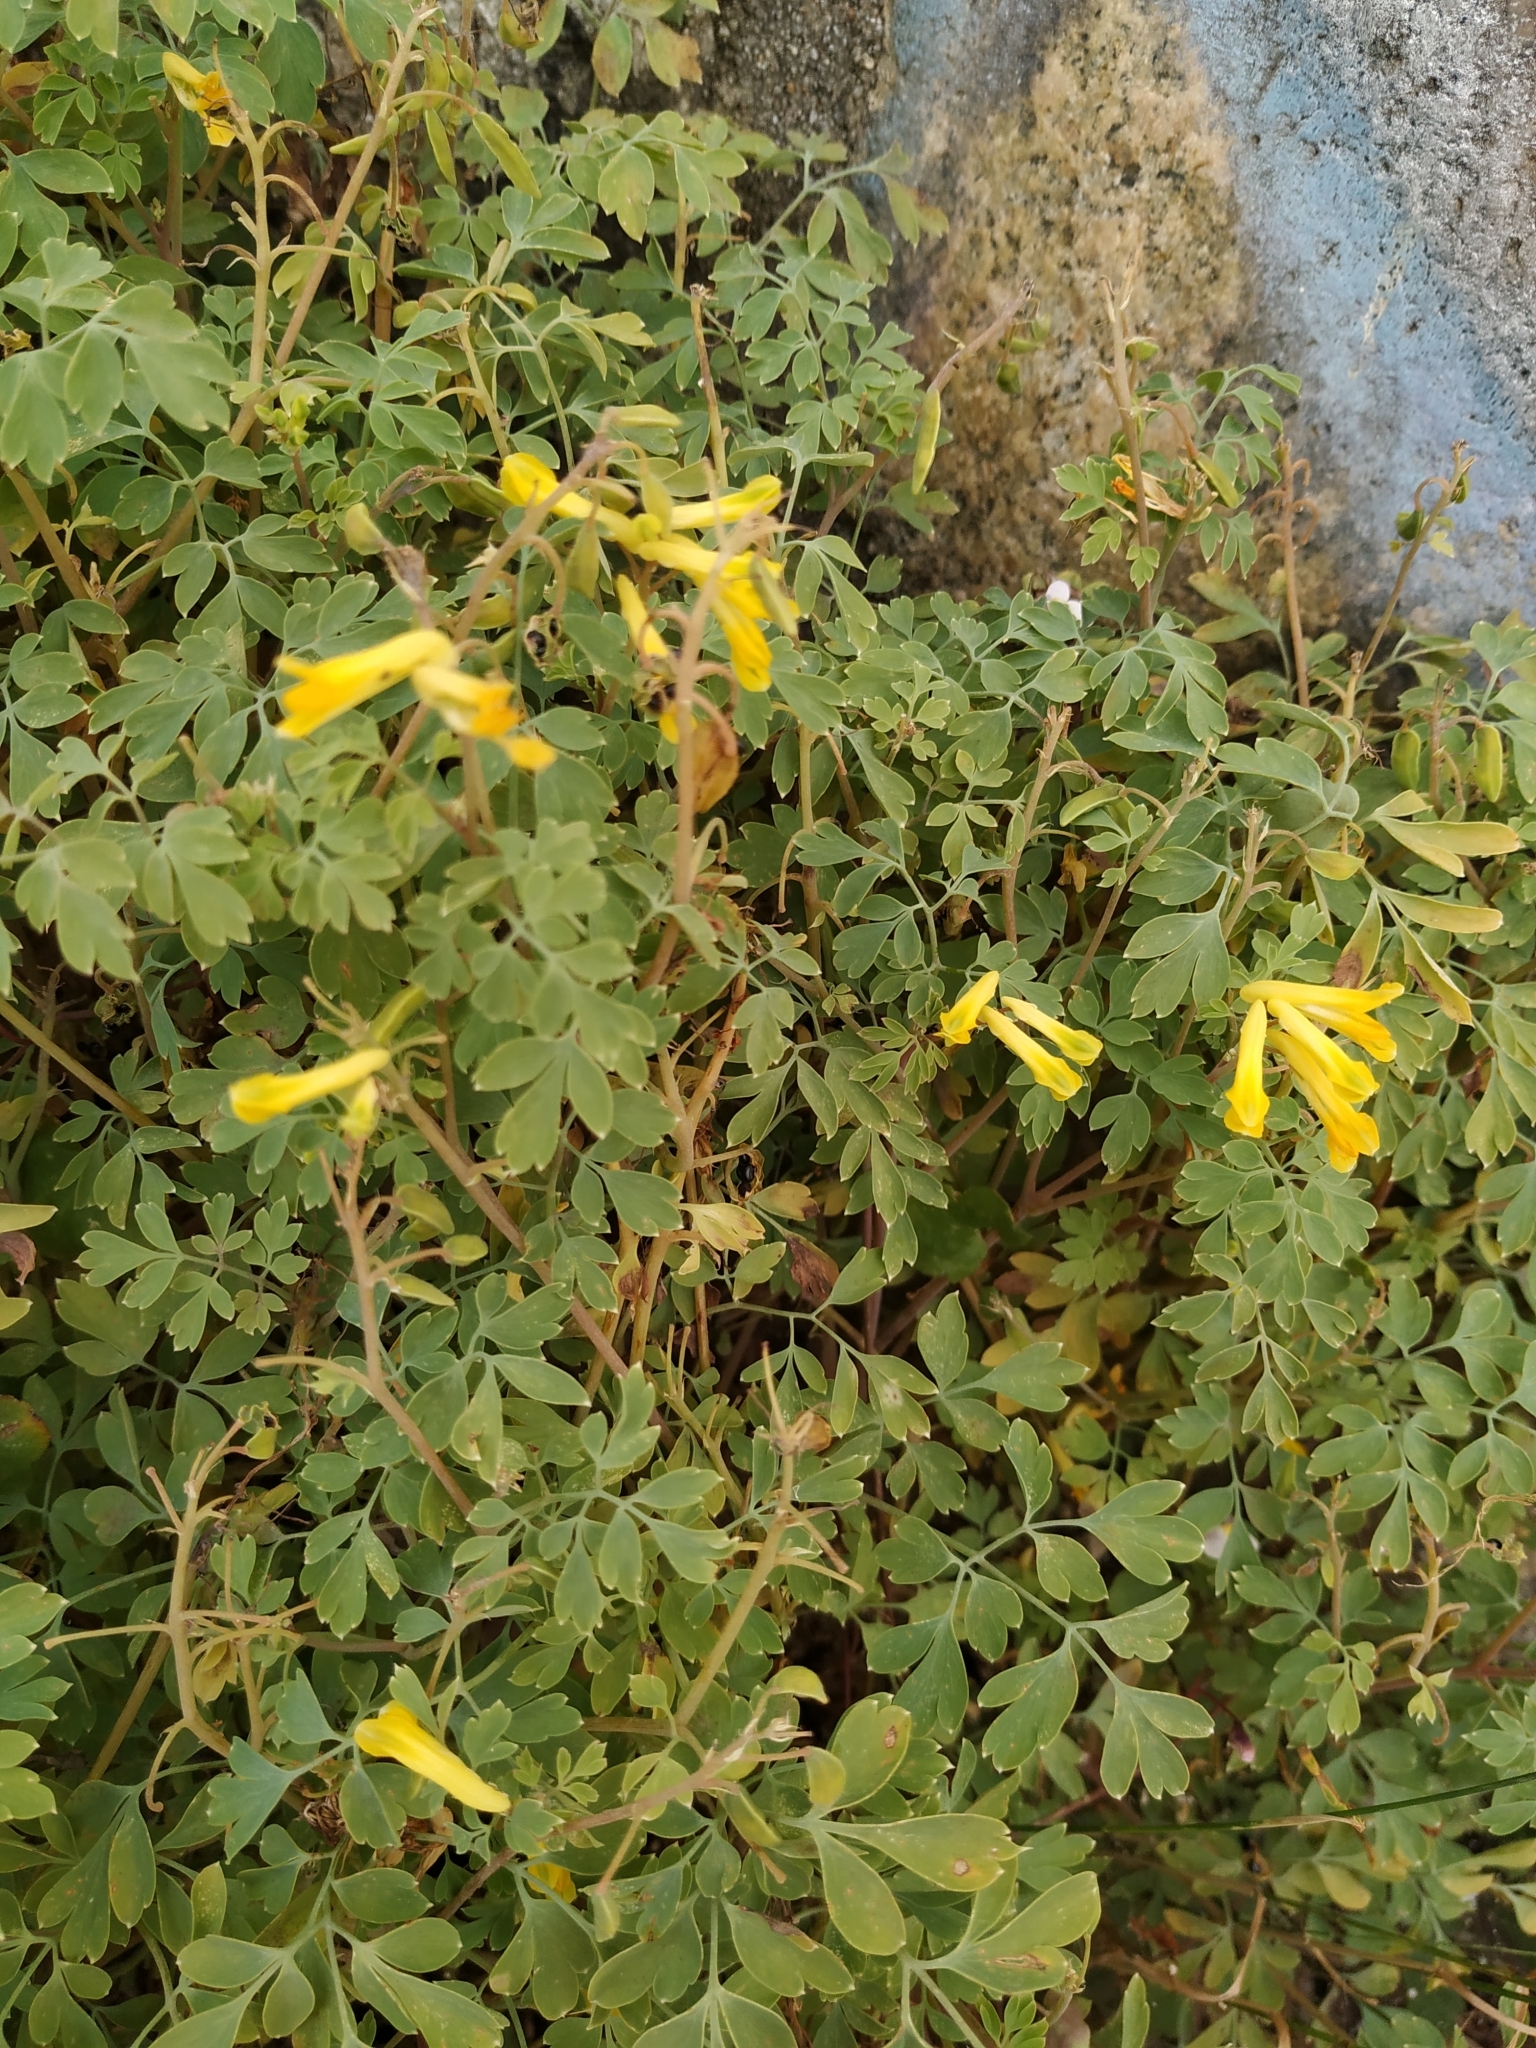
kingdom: Plantae
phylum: Tracheophyta
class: Magnoliopsida
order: Ranunculales
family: Papaveraceae
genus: Pseudofumaria
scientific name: Pseudofumaria lutea
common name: Yellow corydalis
